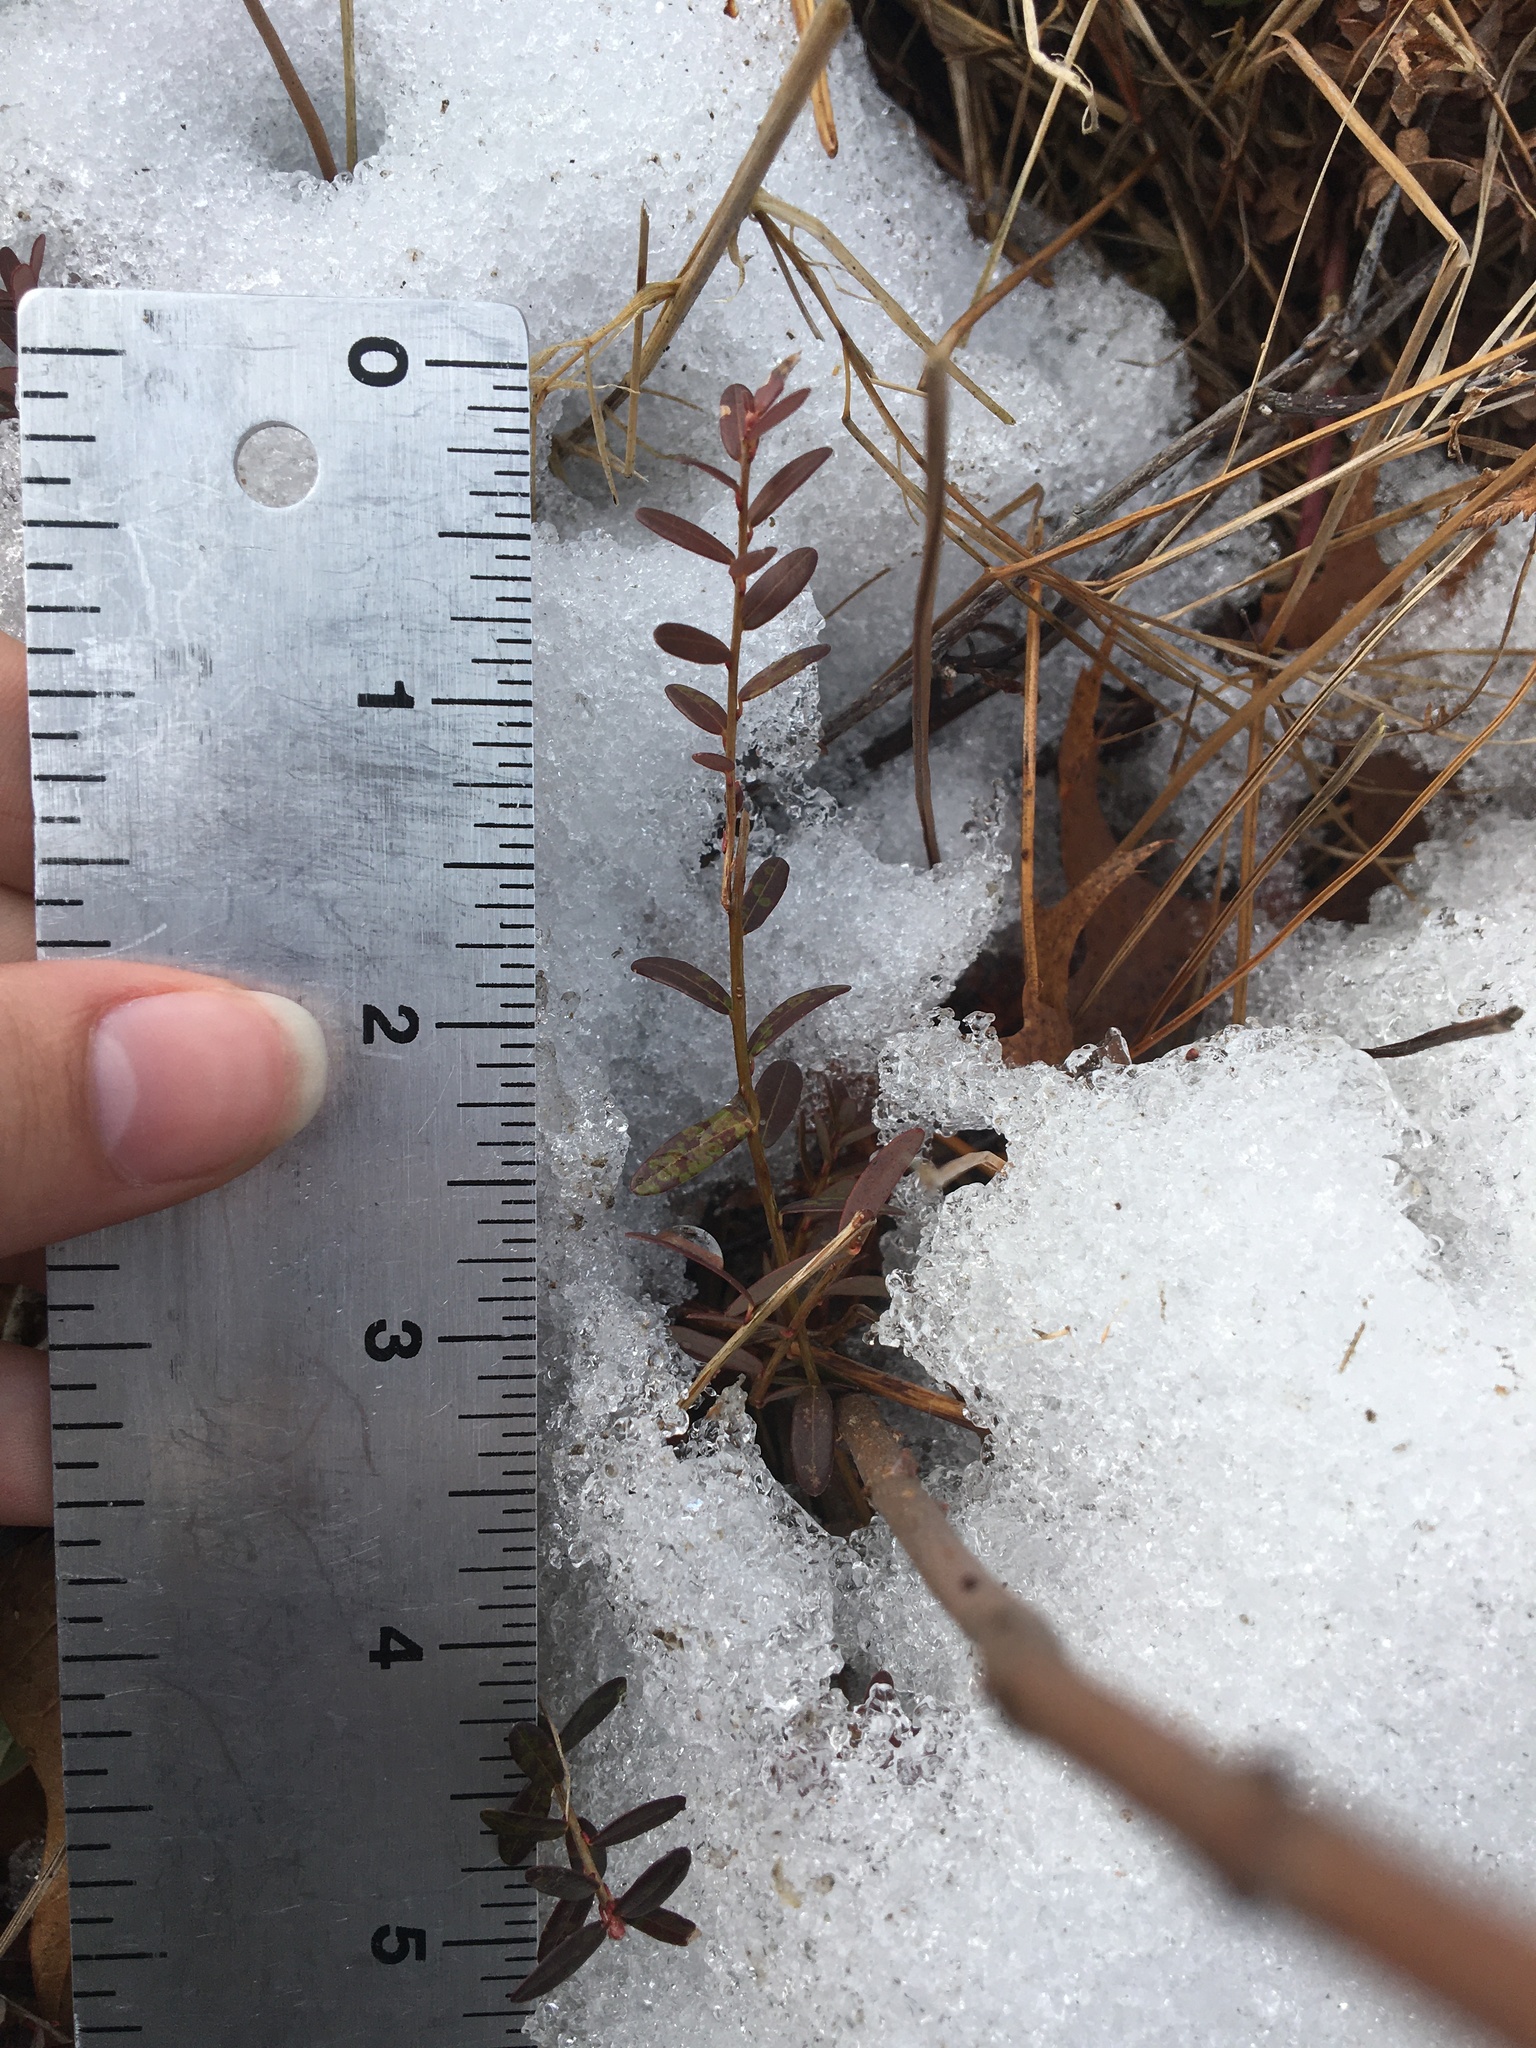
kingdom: Plantae
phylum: Tracheophyta
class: Magnoliopsida
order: Ericales
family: Ericaceae
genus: Vaccinium
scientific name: Vaccinium macrocarpon
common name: American cranberry
